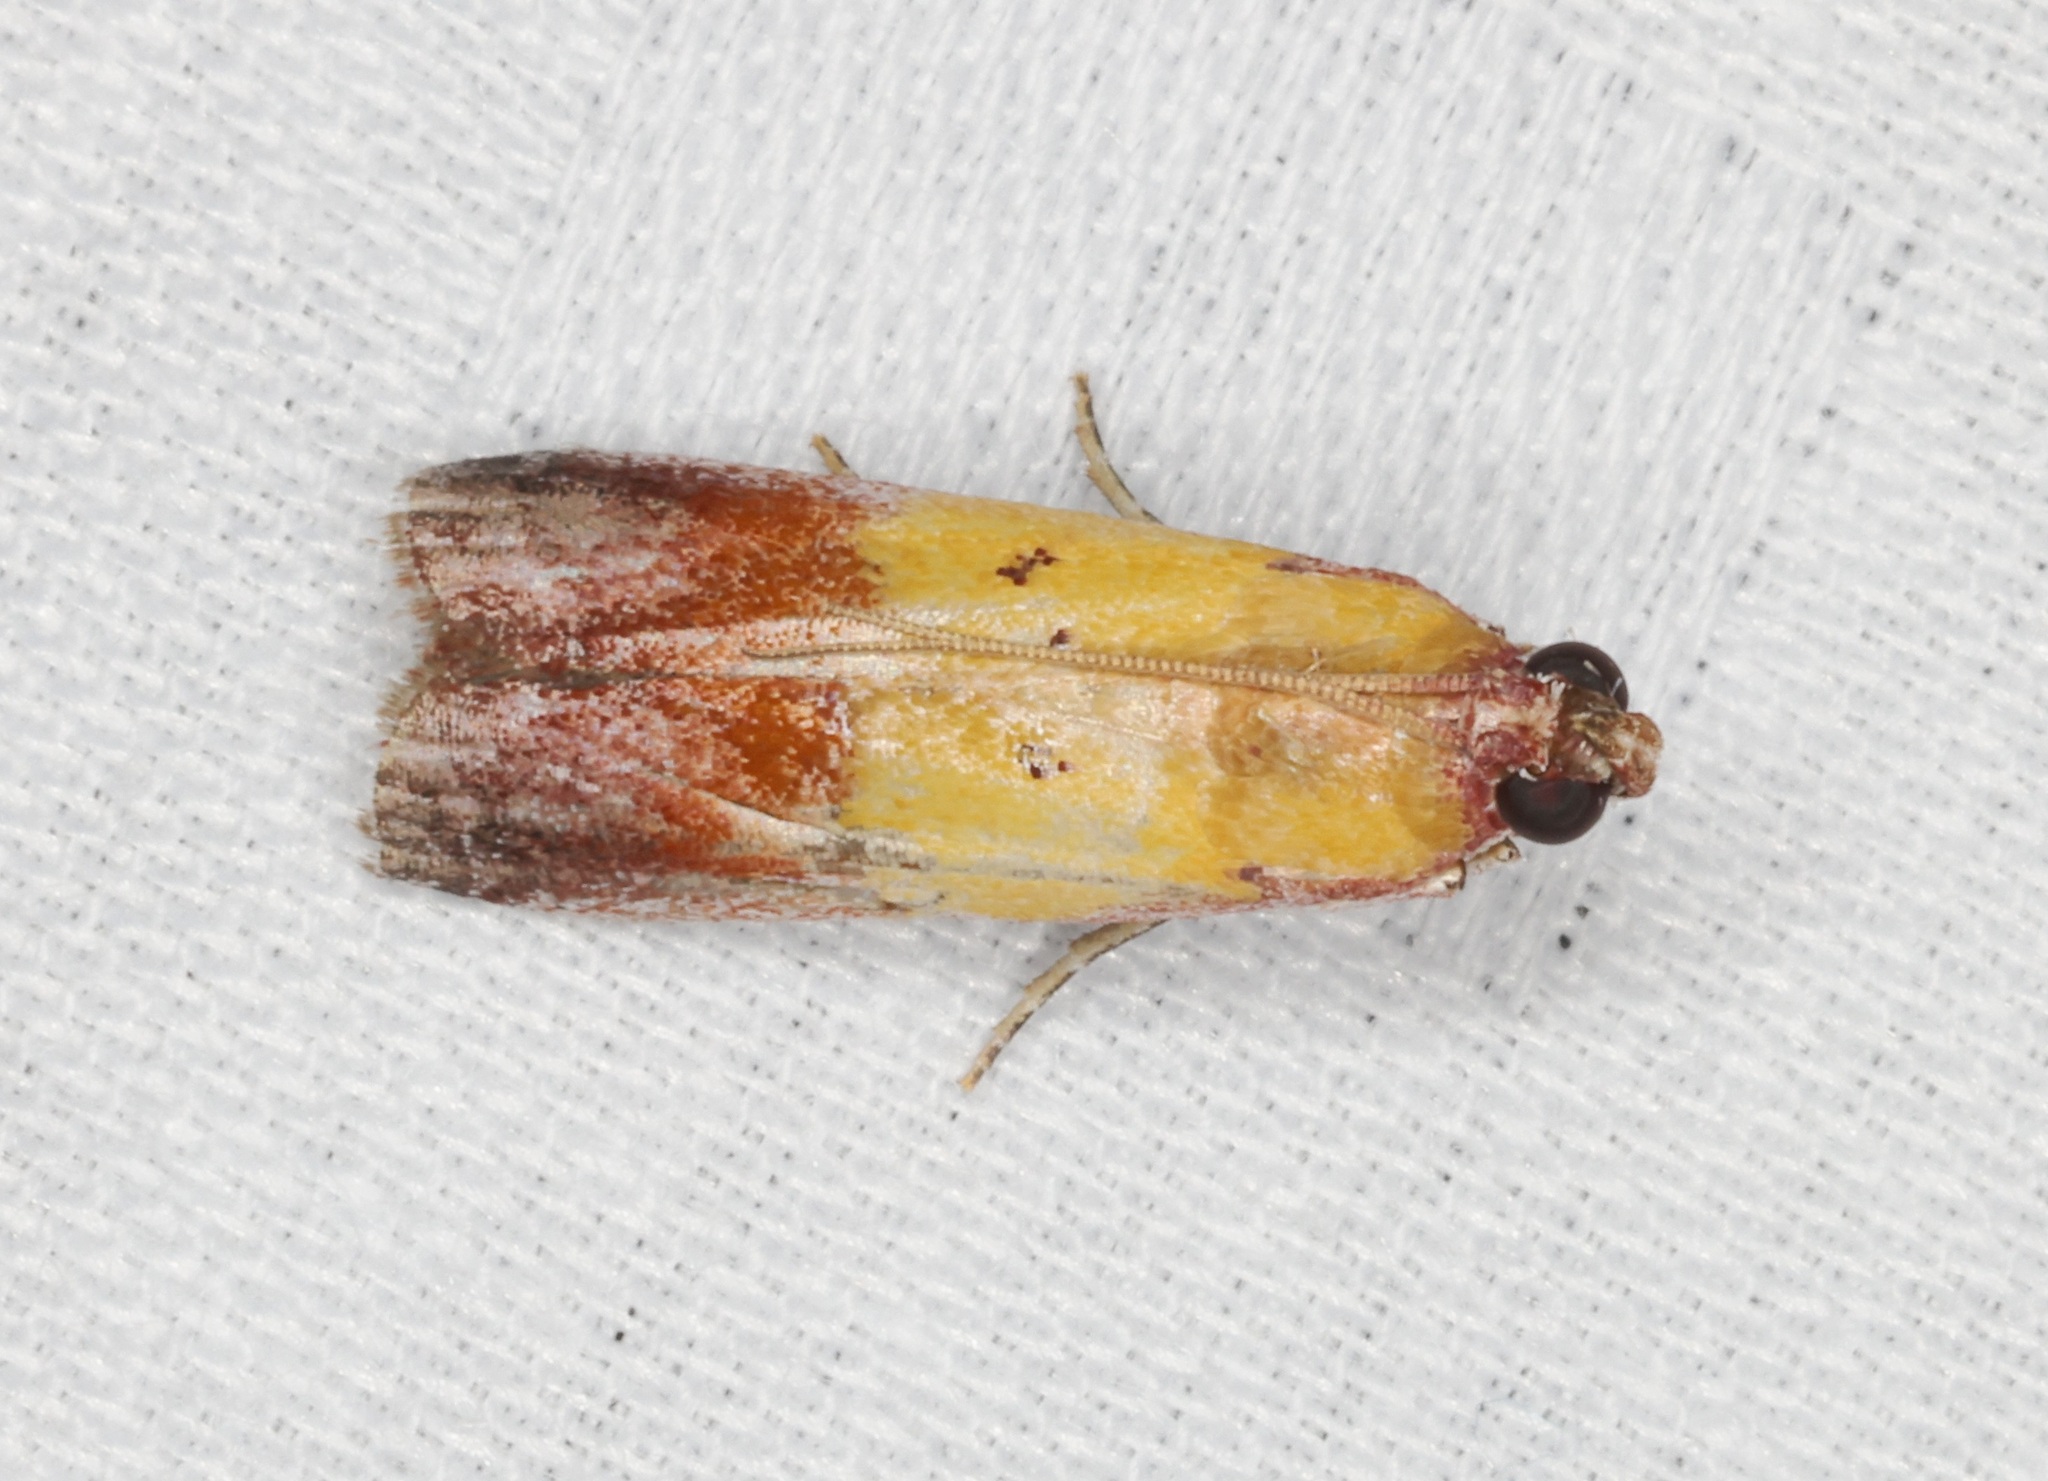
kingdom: Animalia
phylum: Arthropoda
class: Insecta
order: Lepidoptera
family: Pyralidae
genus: Piesmopoda
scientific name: Piesmopoda
